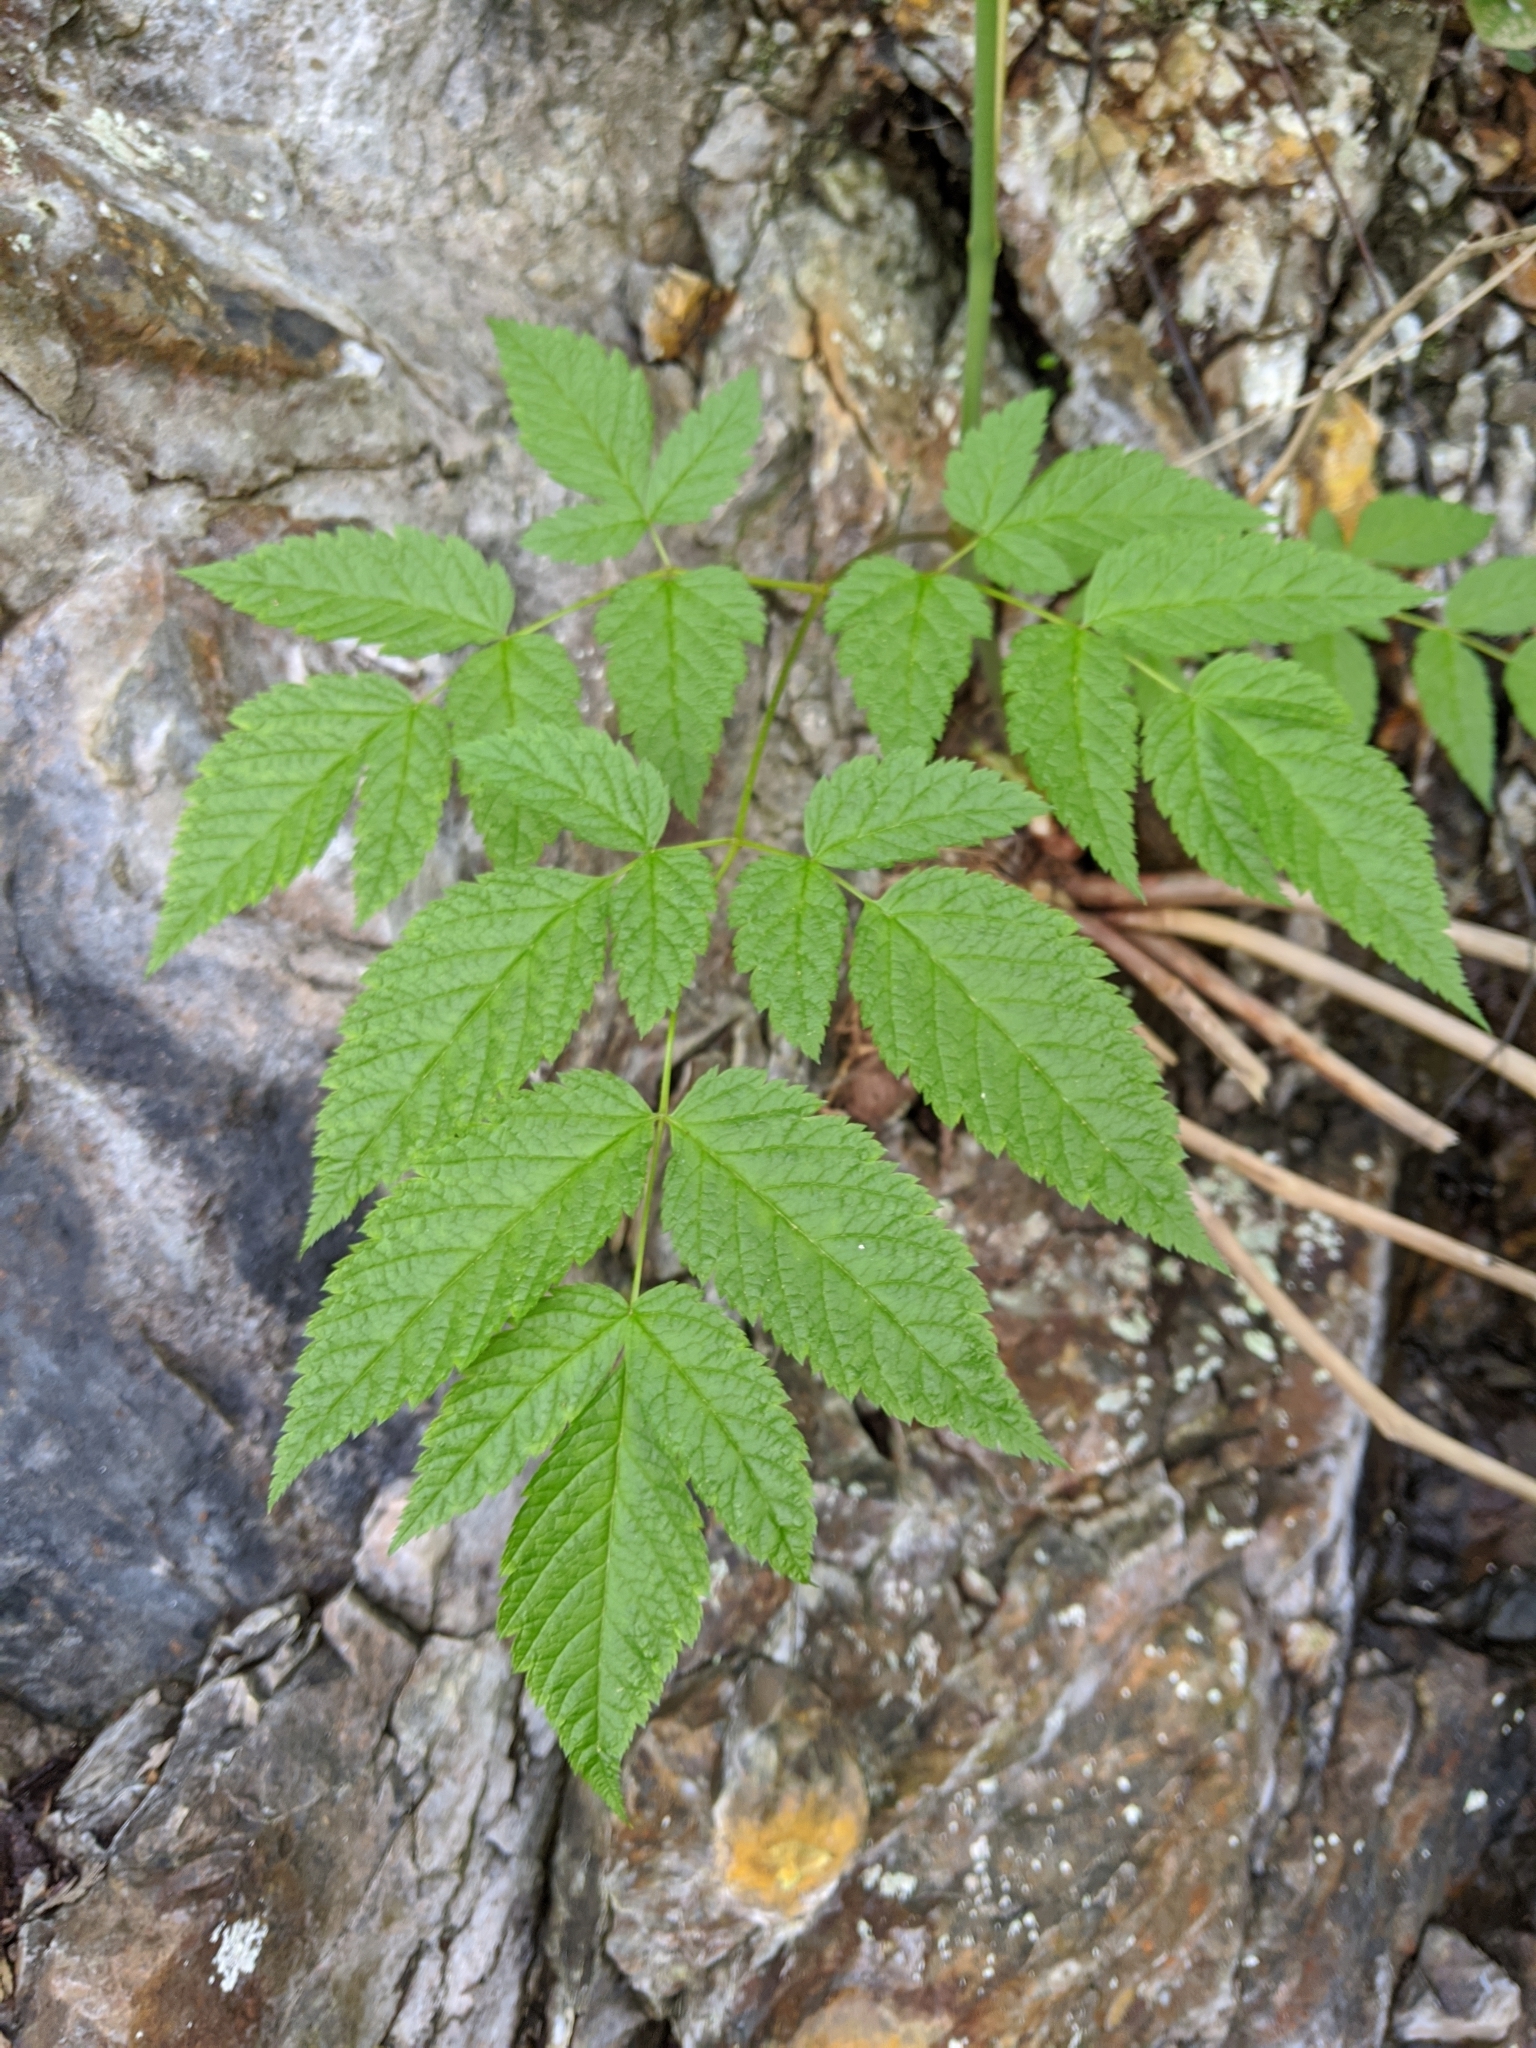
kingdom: Plantae
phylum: Tracheophyta
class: Magnoliopsida
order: Rosales
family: Rosaceae
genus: Aruncus
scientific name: Aruncus dioicus
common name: Buck's-beard
